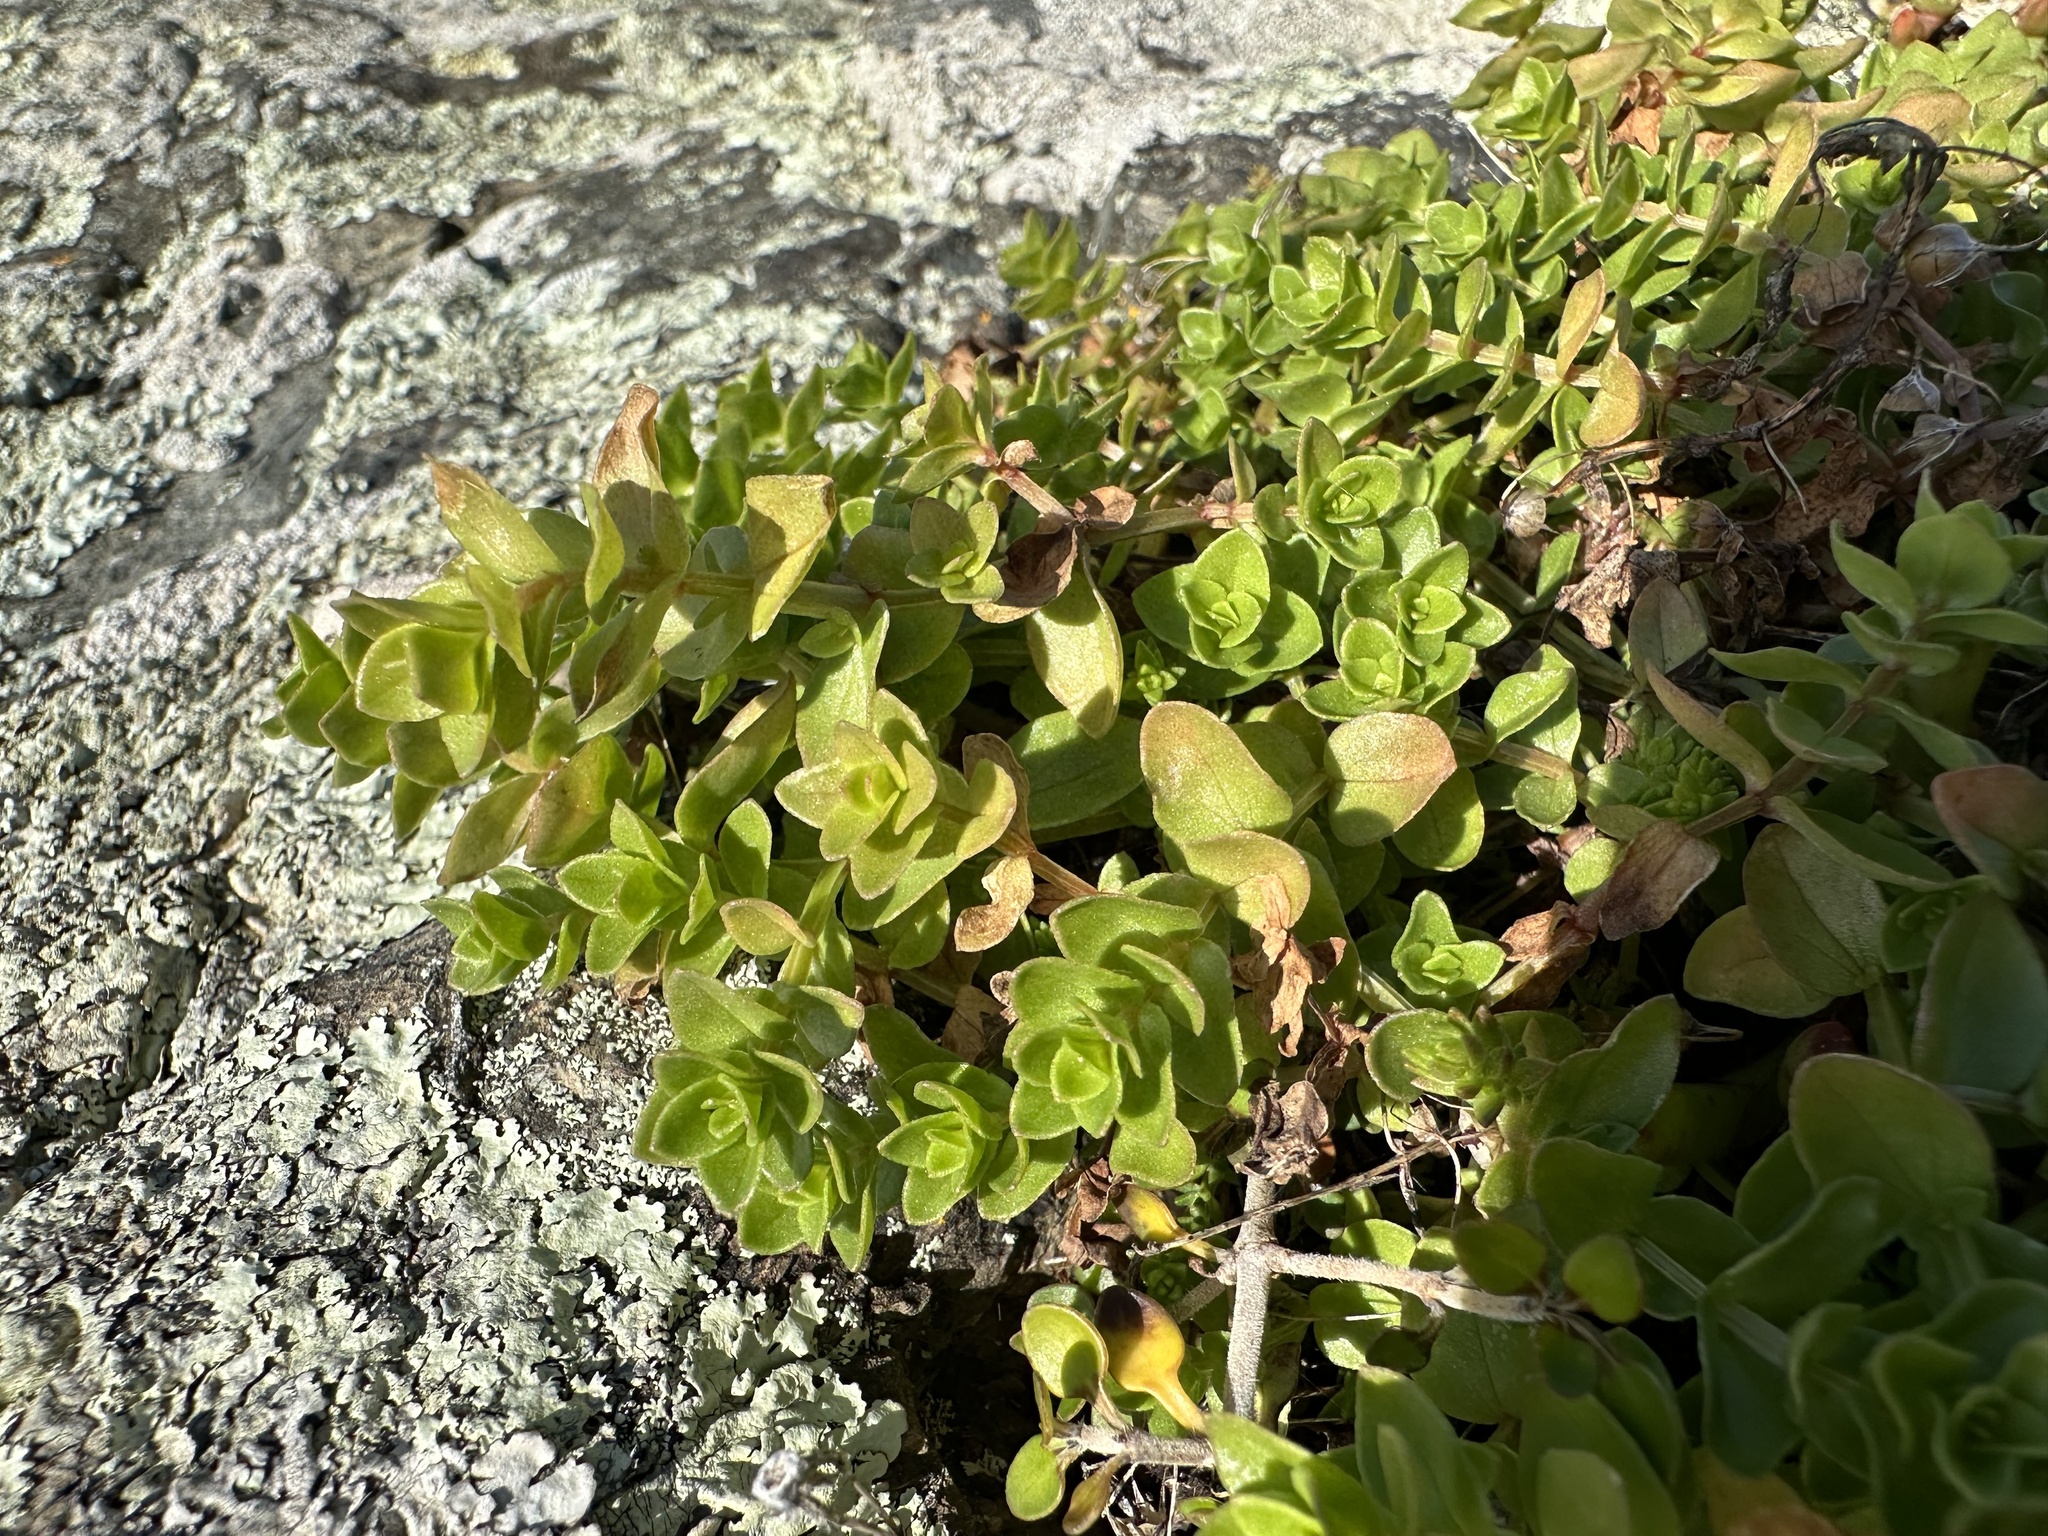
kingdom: Plantae
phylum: Tracheophyta
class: Magnoliopsida
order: Ericales
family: Primulaceae
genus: Lysimachia
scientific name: Lysimachia arvensis
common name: Scarlet pimpernel
